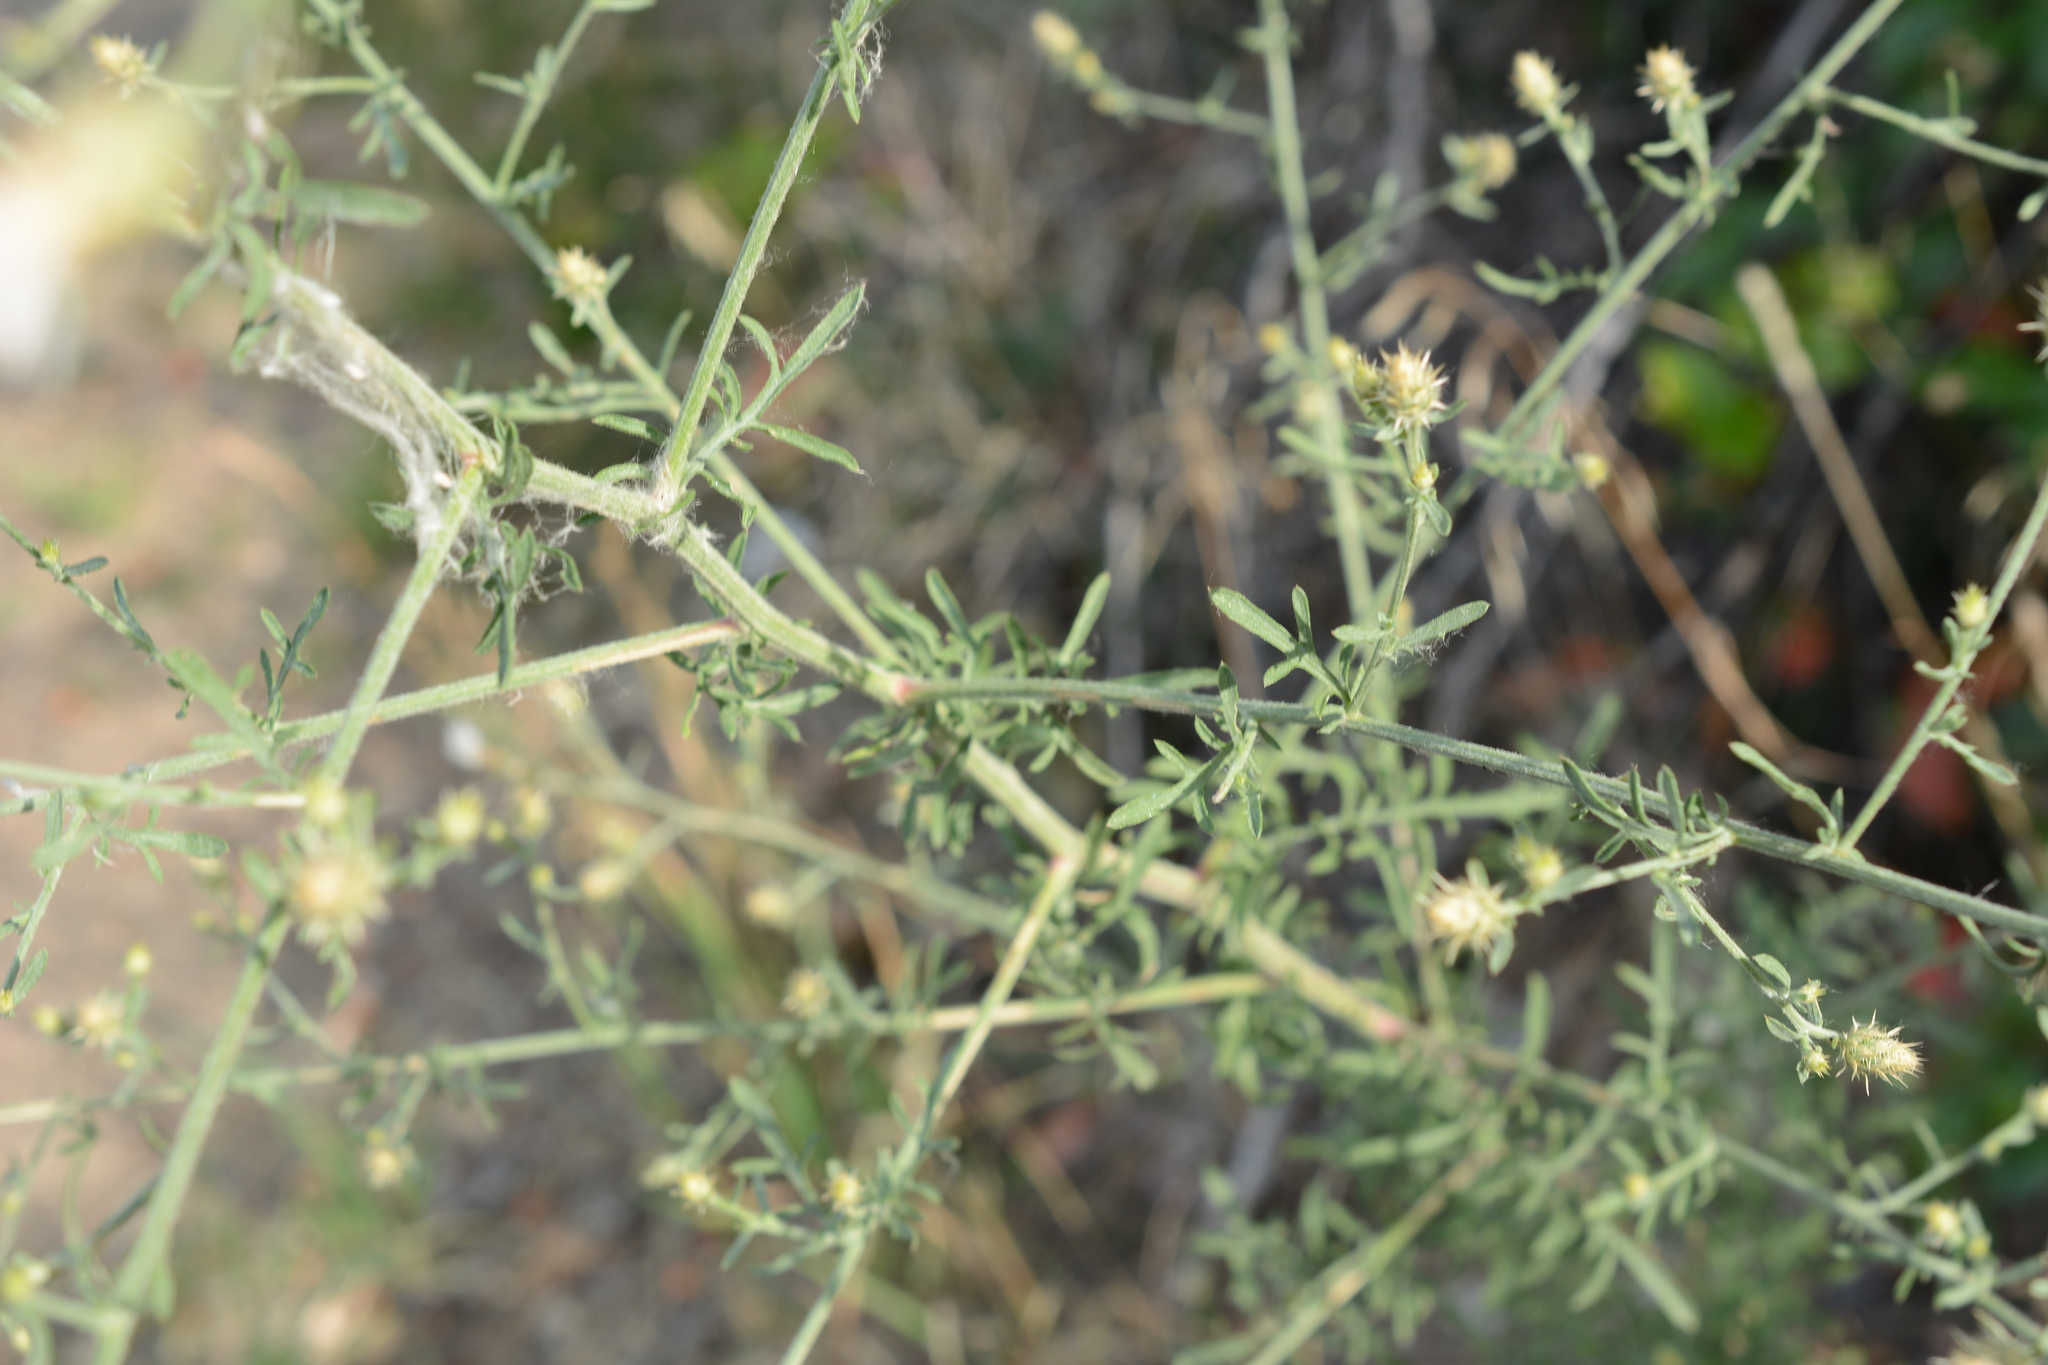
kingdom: Plantae
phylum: Tracheophyta
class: Magnoliopsida
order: Asterales
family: Asteraceae
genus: Centaurea
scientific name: Centaurea diffusa
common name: Diffuse knapweed
